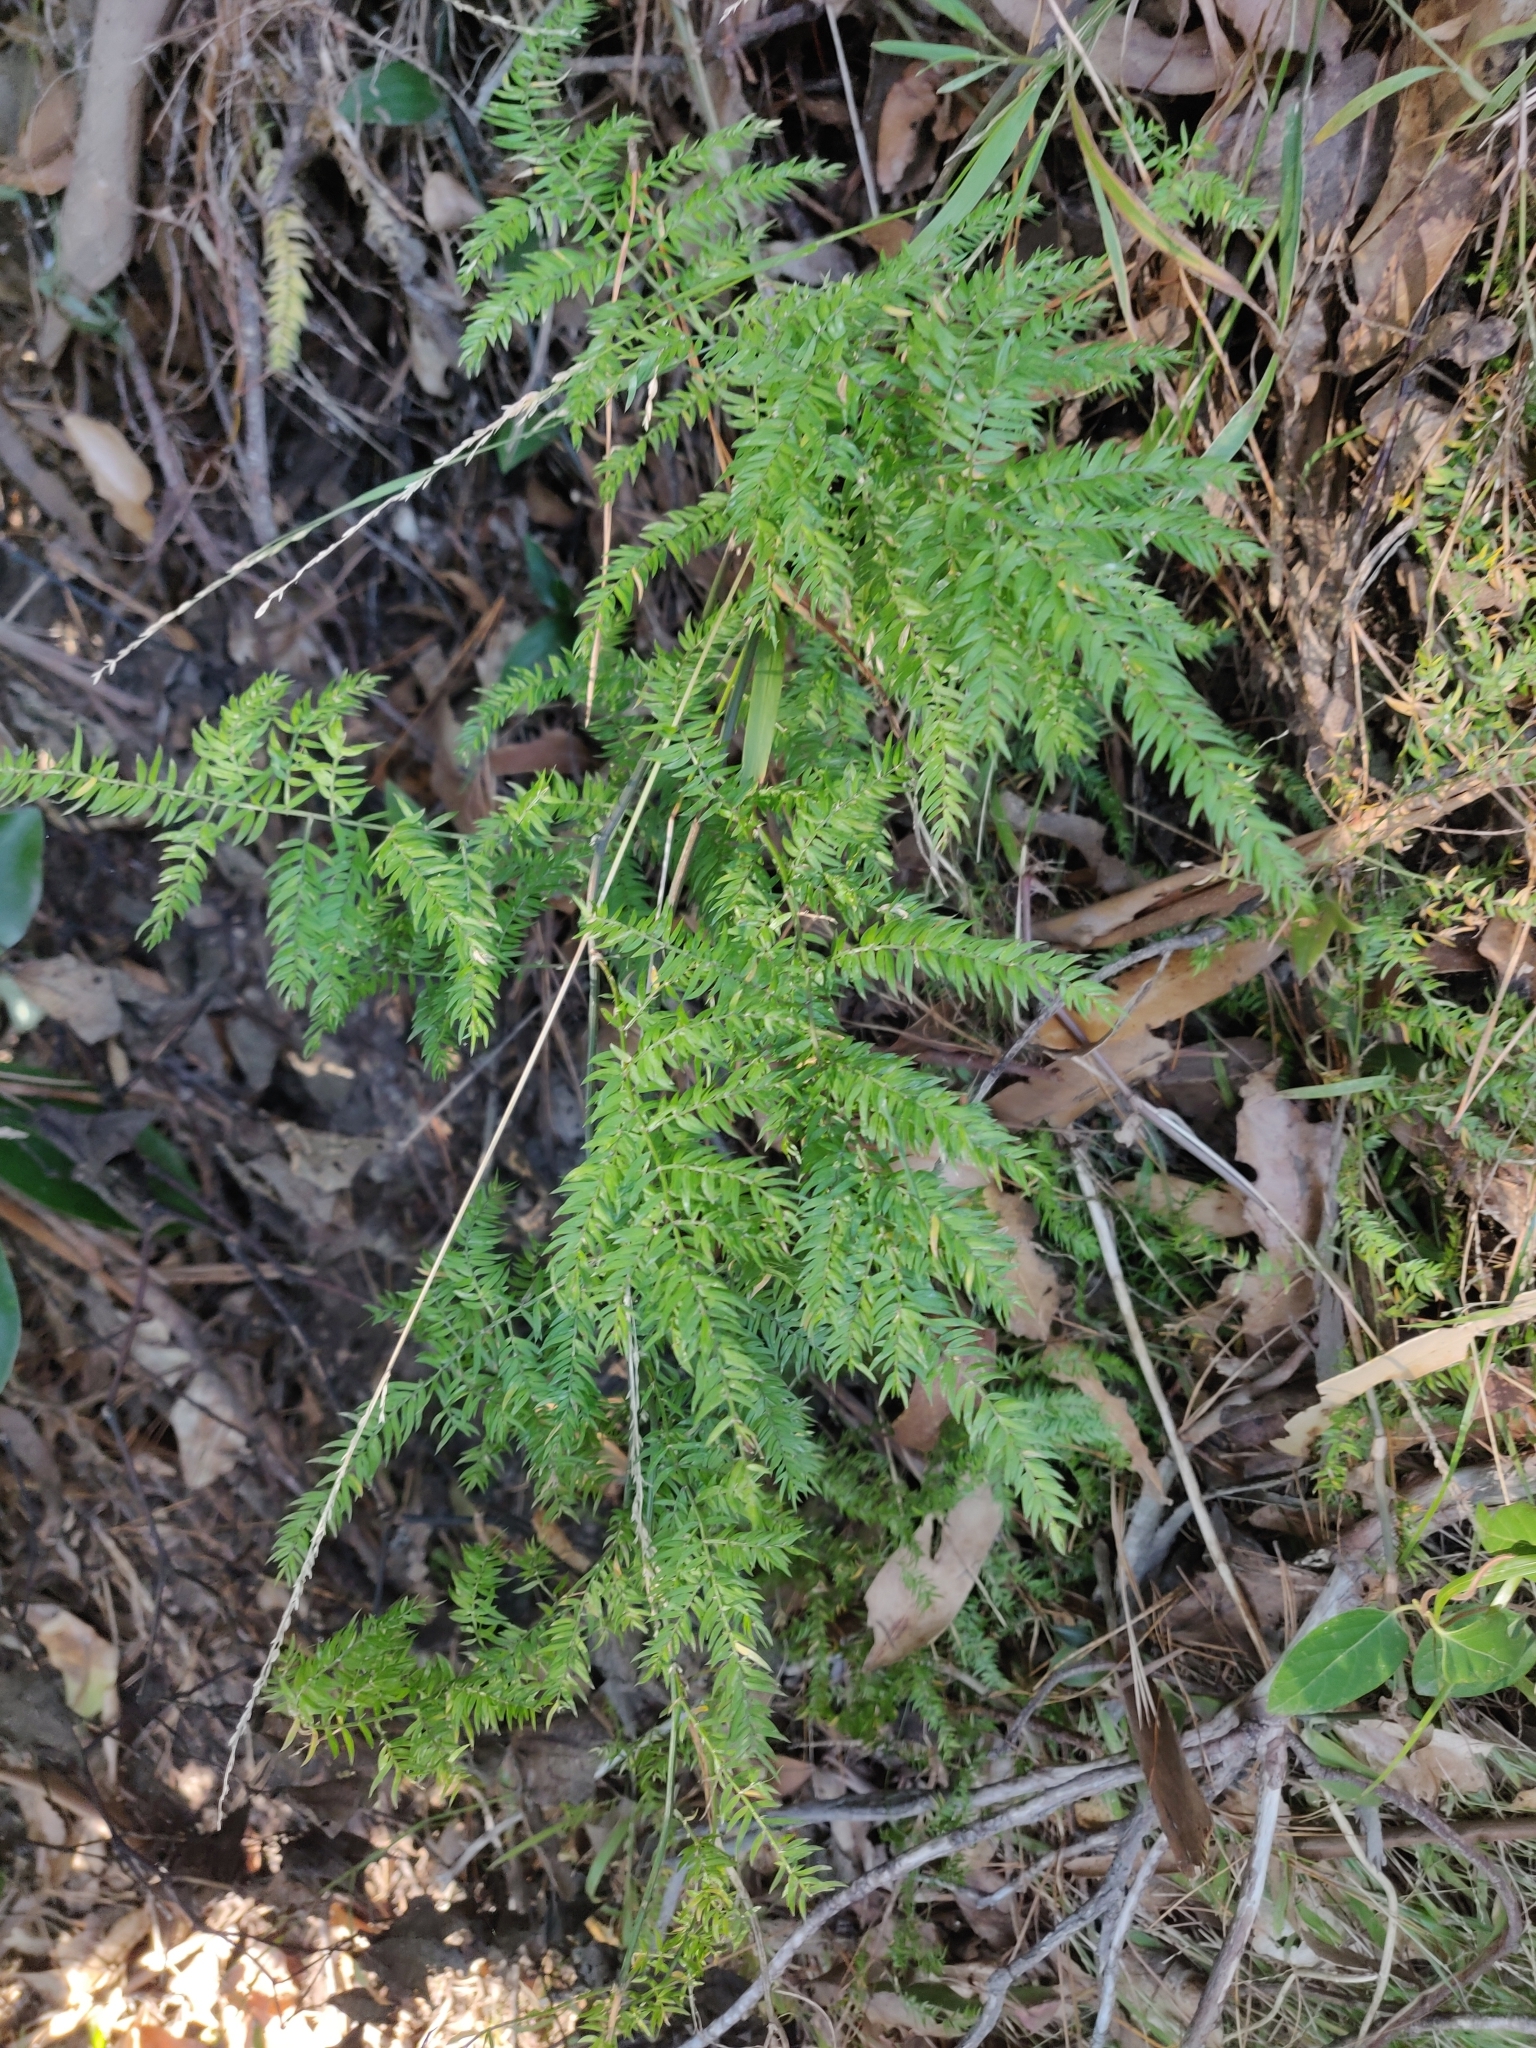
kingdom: Plantae
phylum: Tracheophyta
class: Liliopsida
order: Asparagales
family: Asparagaceae
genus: Asparagus
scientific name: Asparagus scandens
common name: Asparagus-fern
